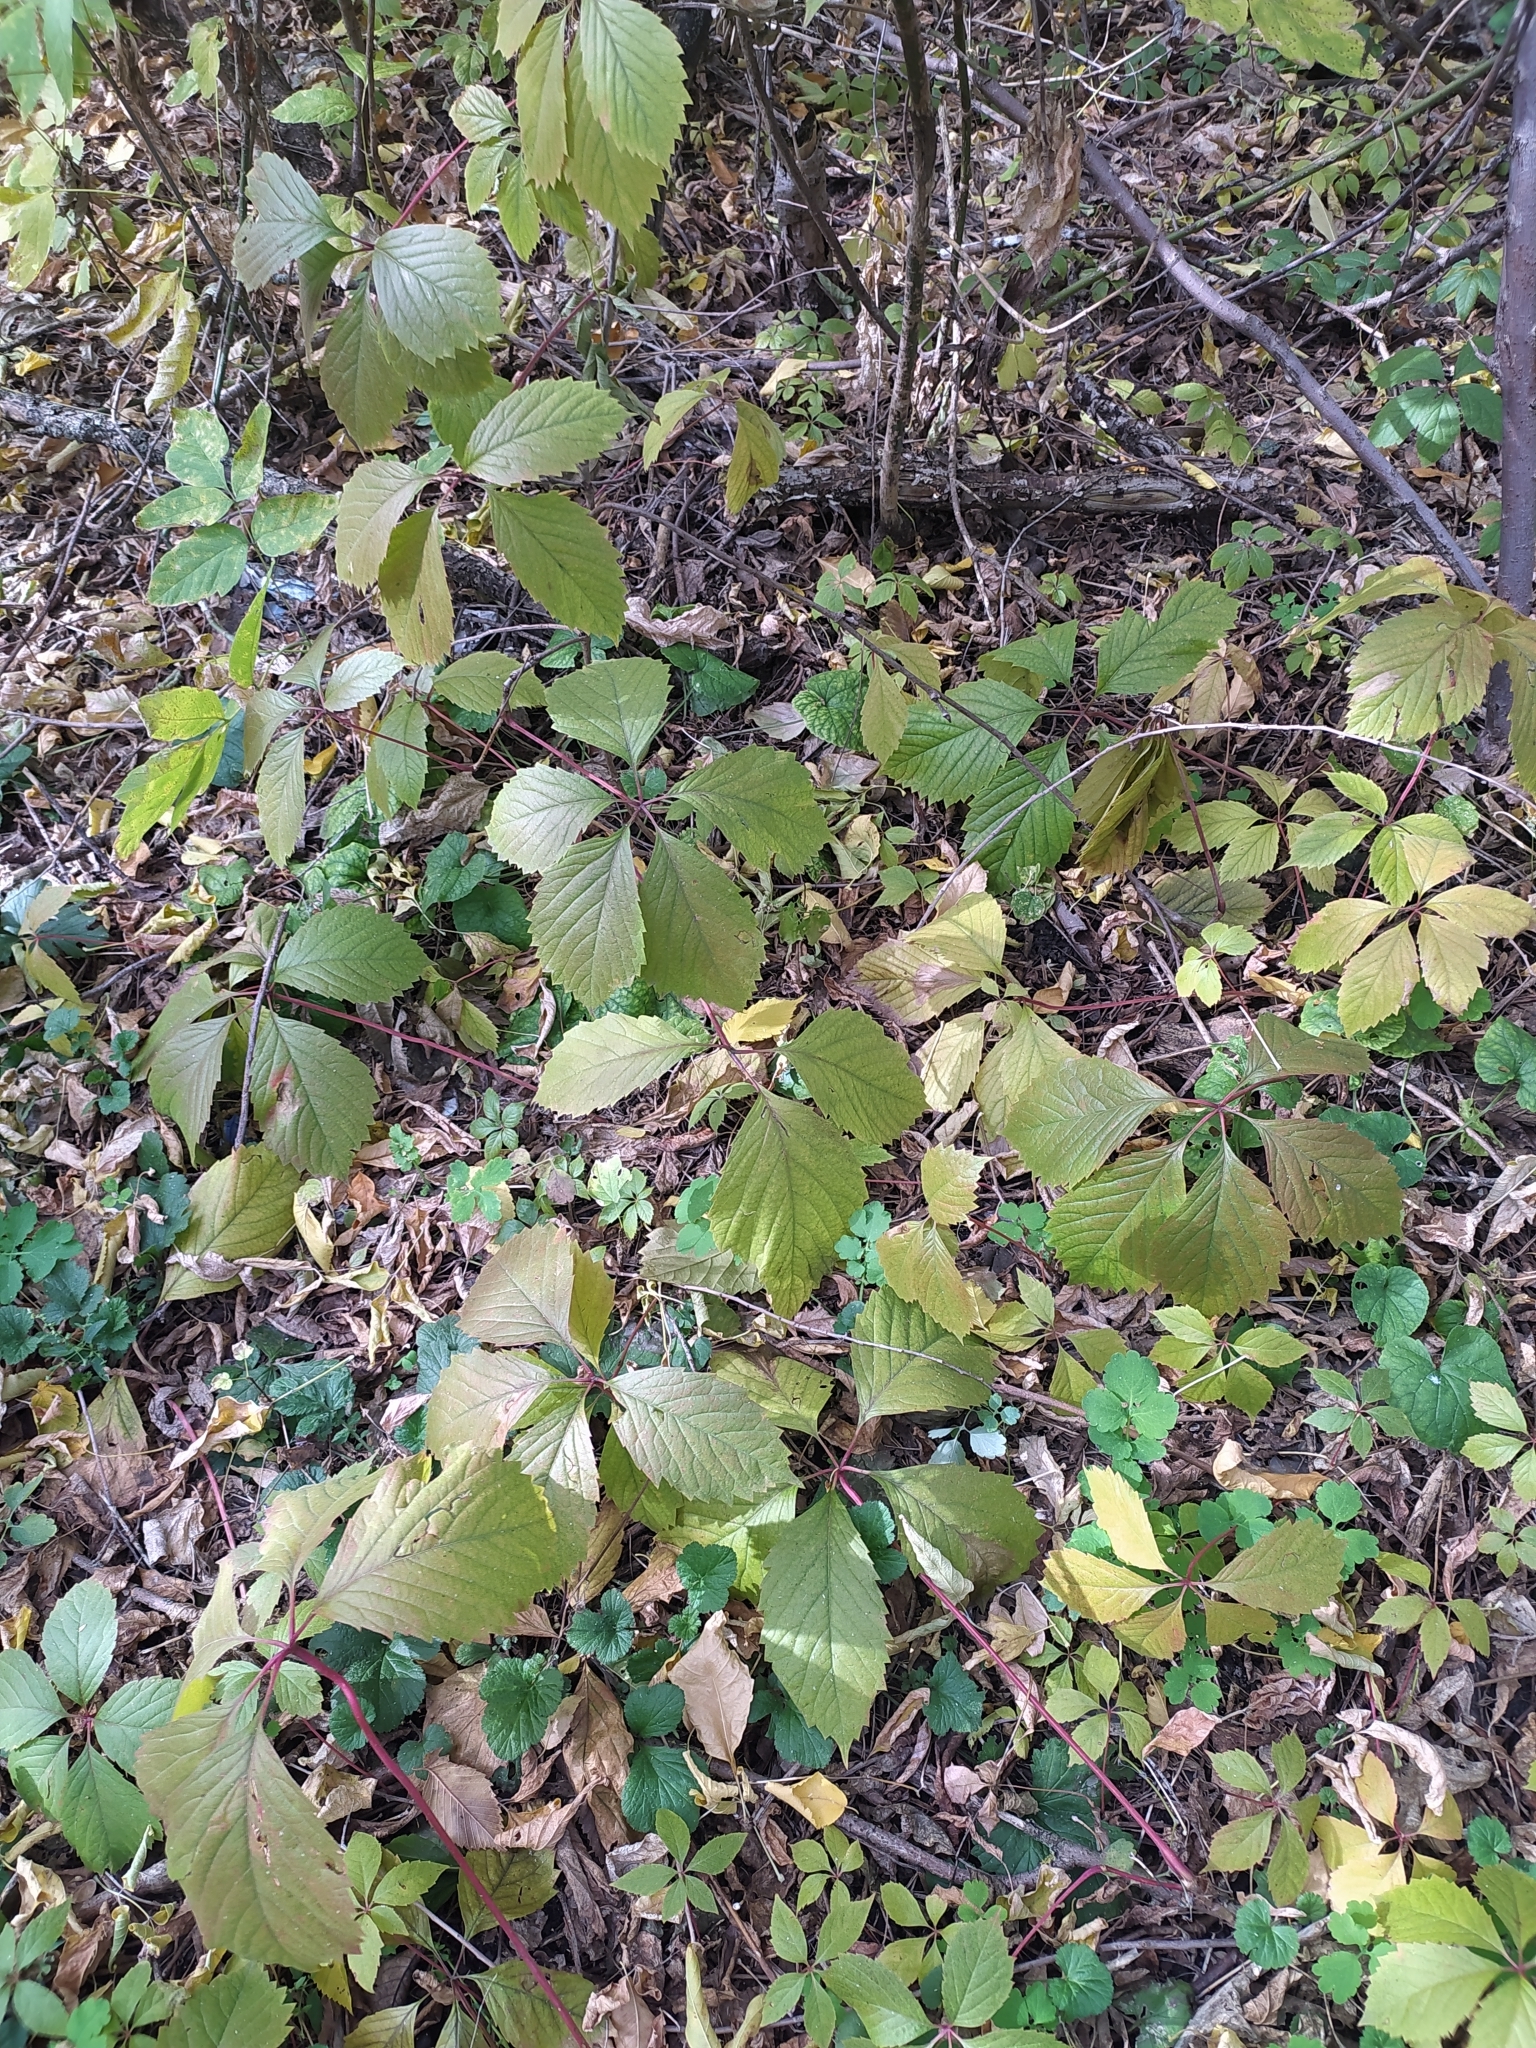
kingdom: Plantae
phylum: Tracheophyta
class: Magnoliopsida
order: Vitales
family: Vitaceae
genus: Parthenocissus
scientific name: Parthenocissus inserta
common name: False virginia-creeper
